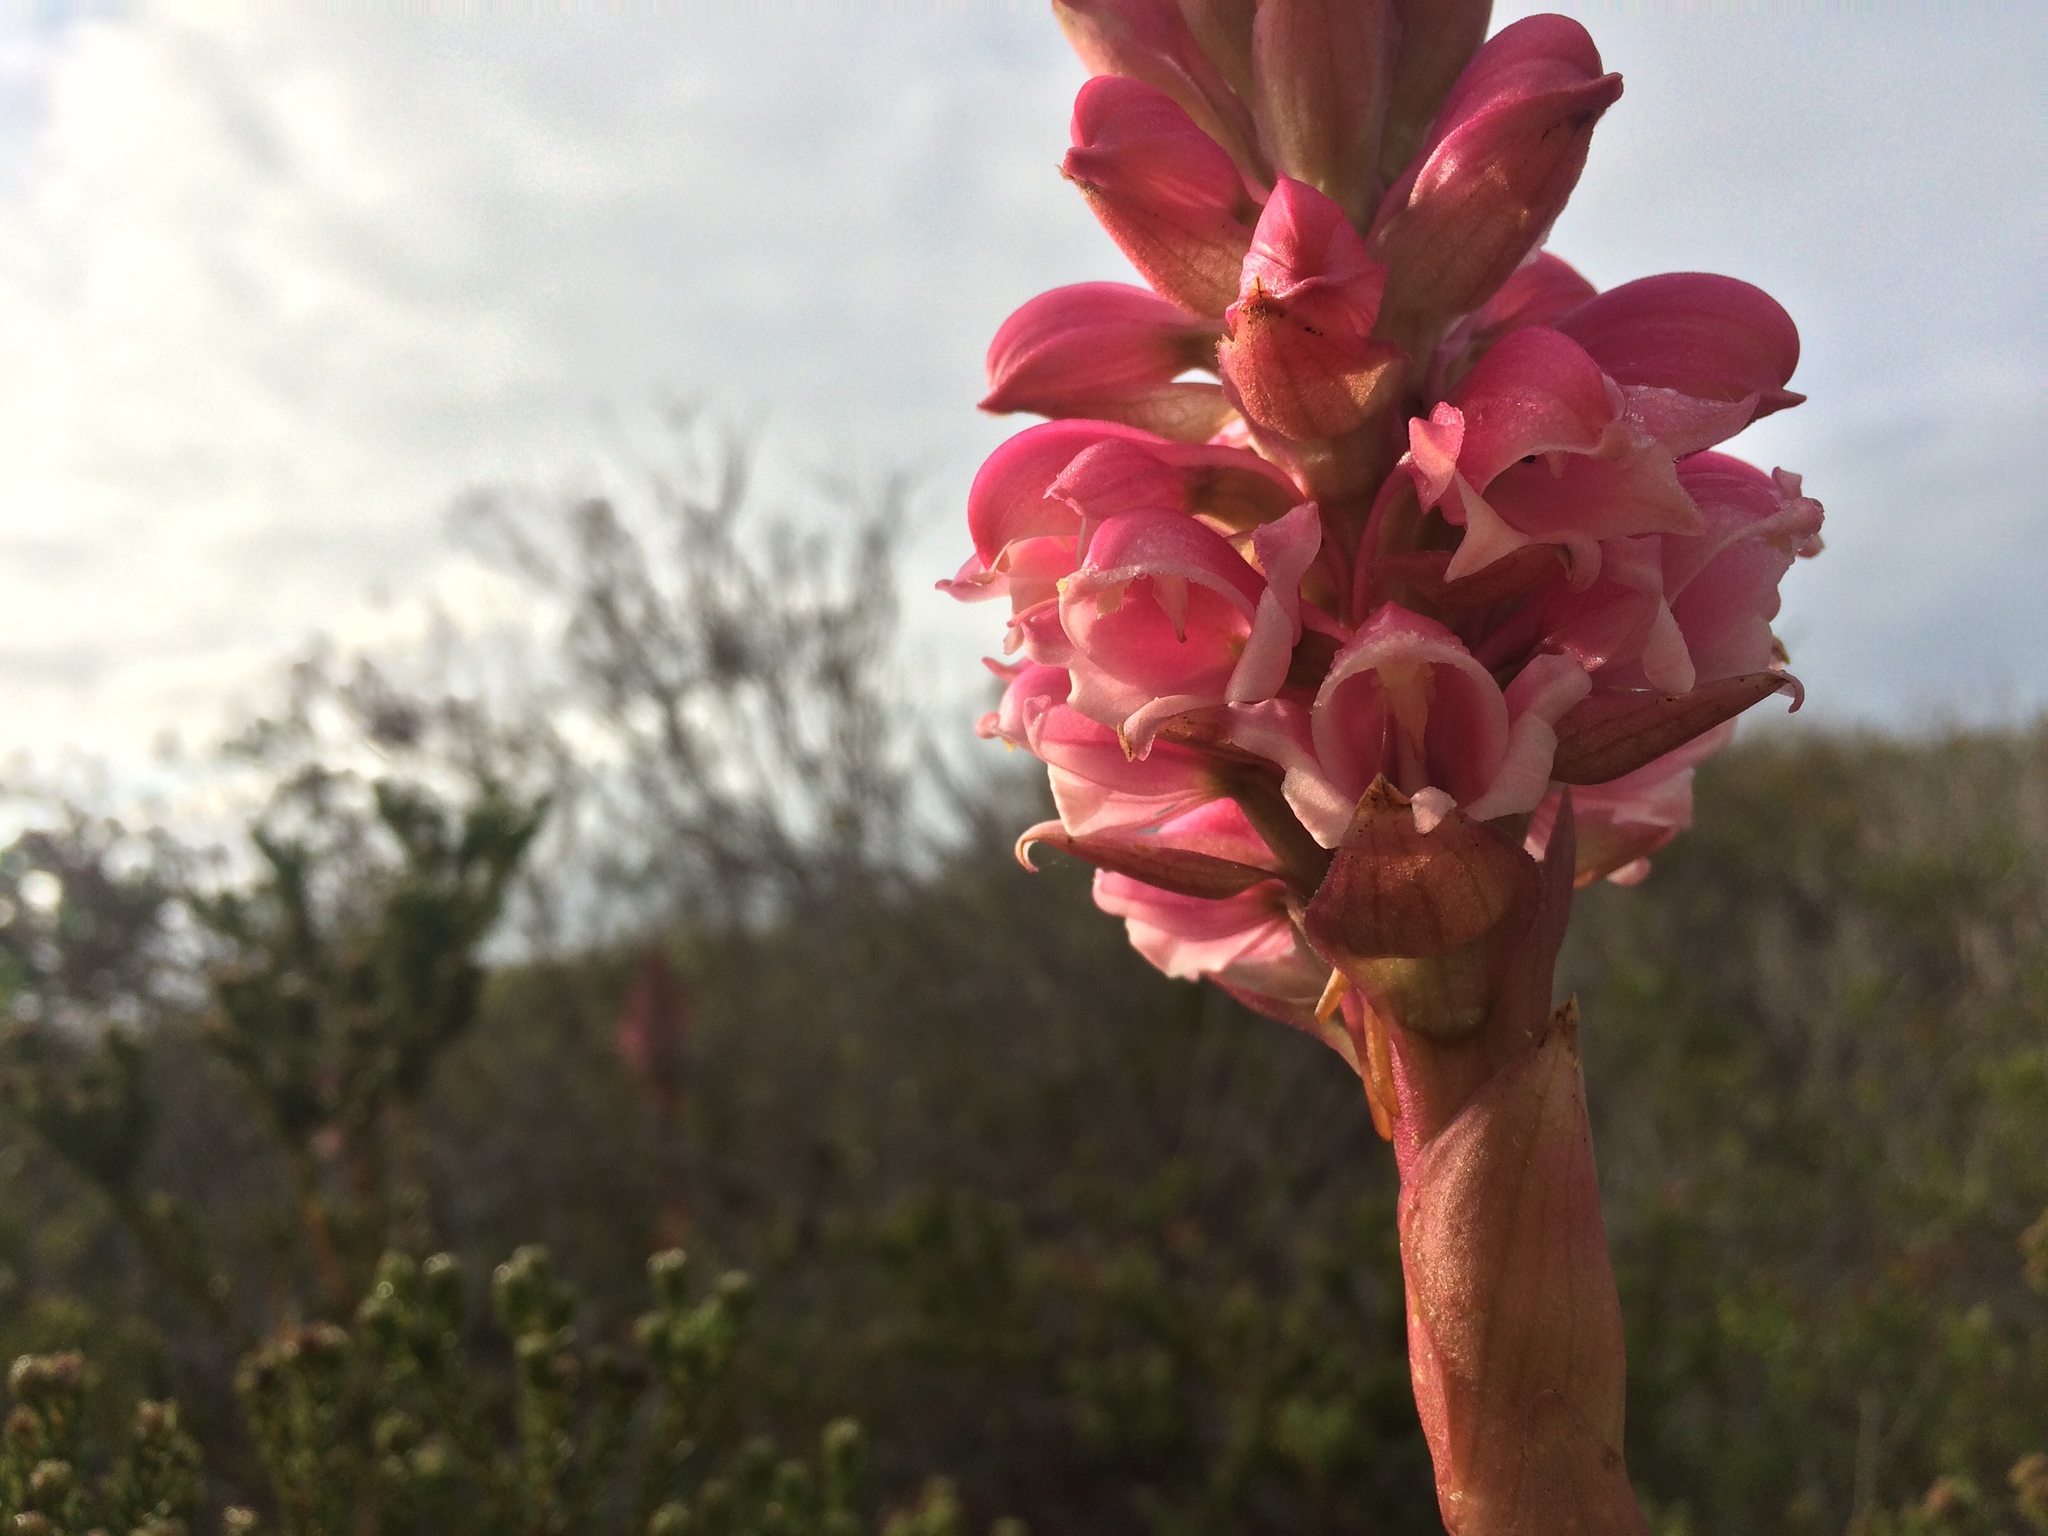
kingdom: Plantae
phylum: Tracheophyta
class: Liliopsida
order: Asparagales
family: Orchidaceae
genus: Satyrium
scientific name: Satyrium carneum
